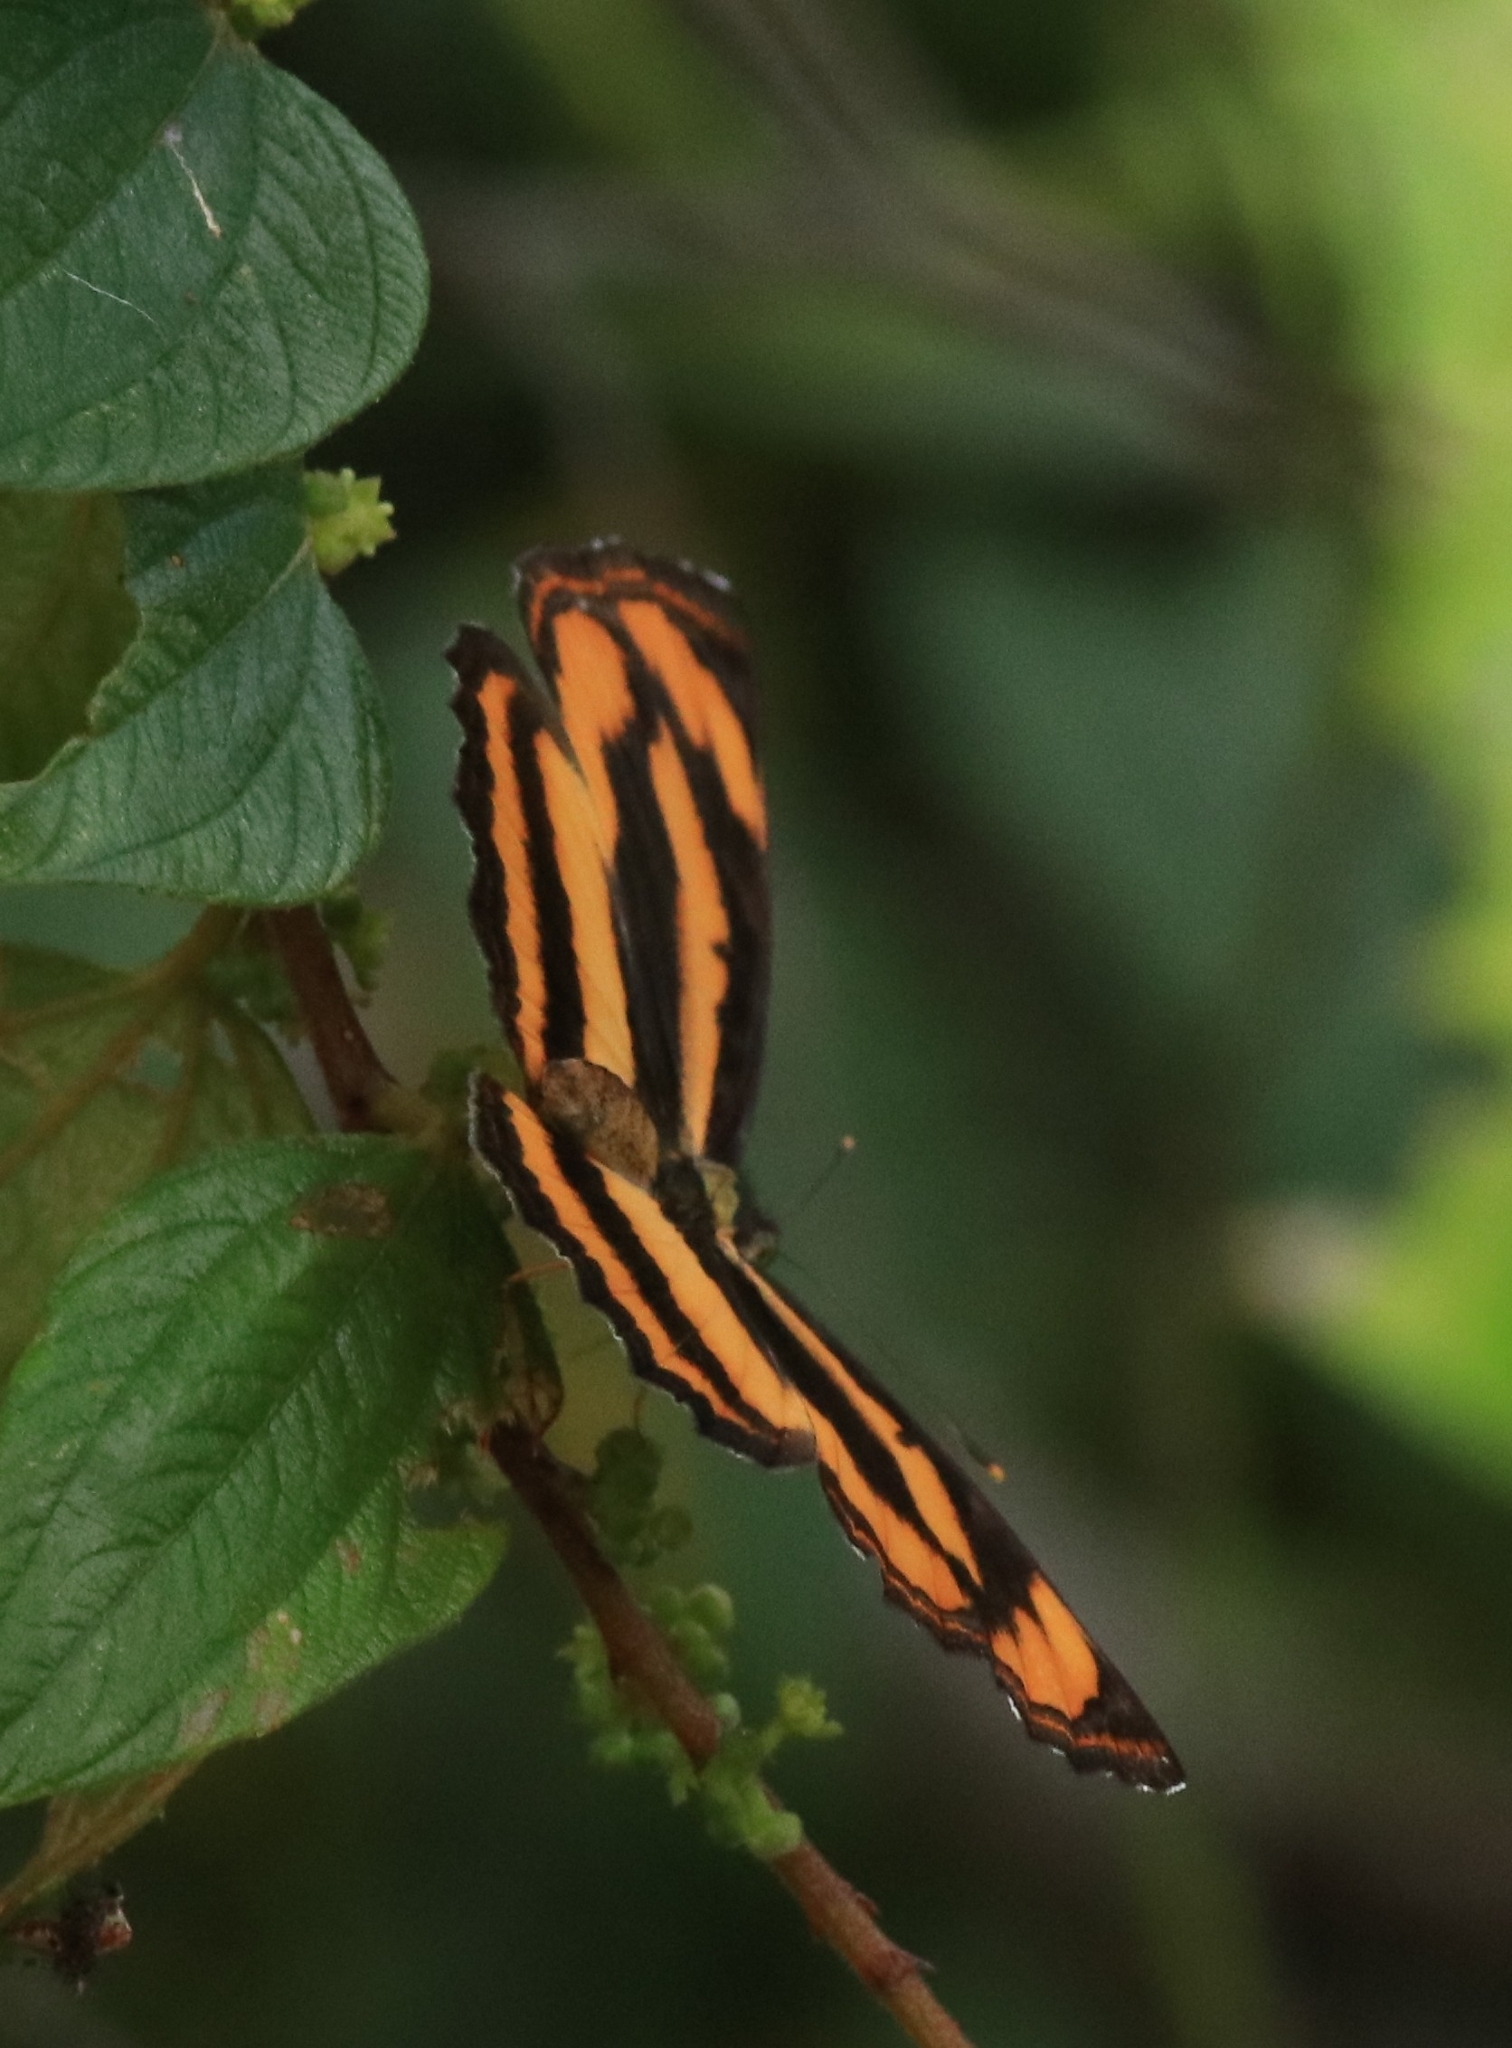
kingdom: Animalia
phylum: Arthropoda
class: Insecta
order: Lepidoptera
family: Nymphalidae
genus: Pantoporia
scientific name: Pantoporia hordonia
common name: Common lascar
